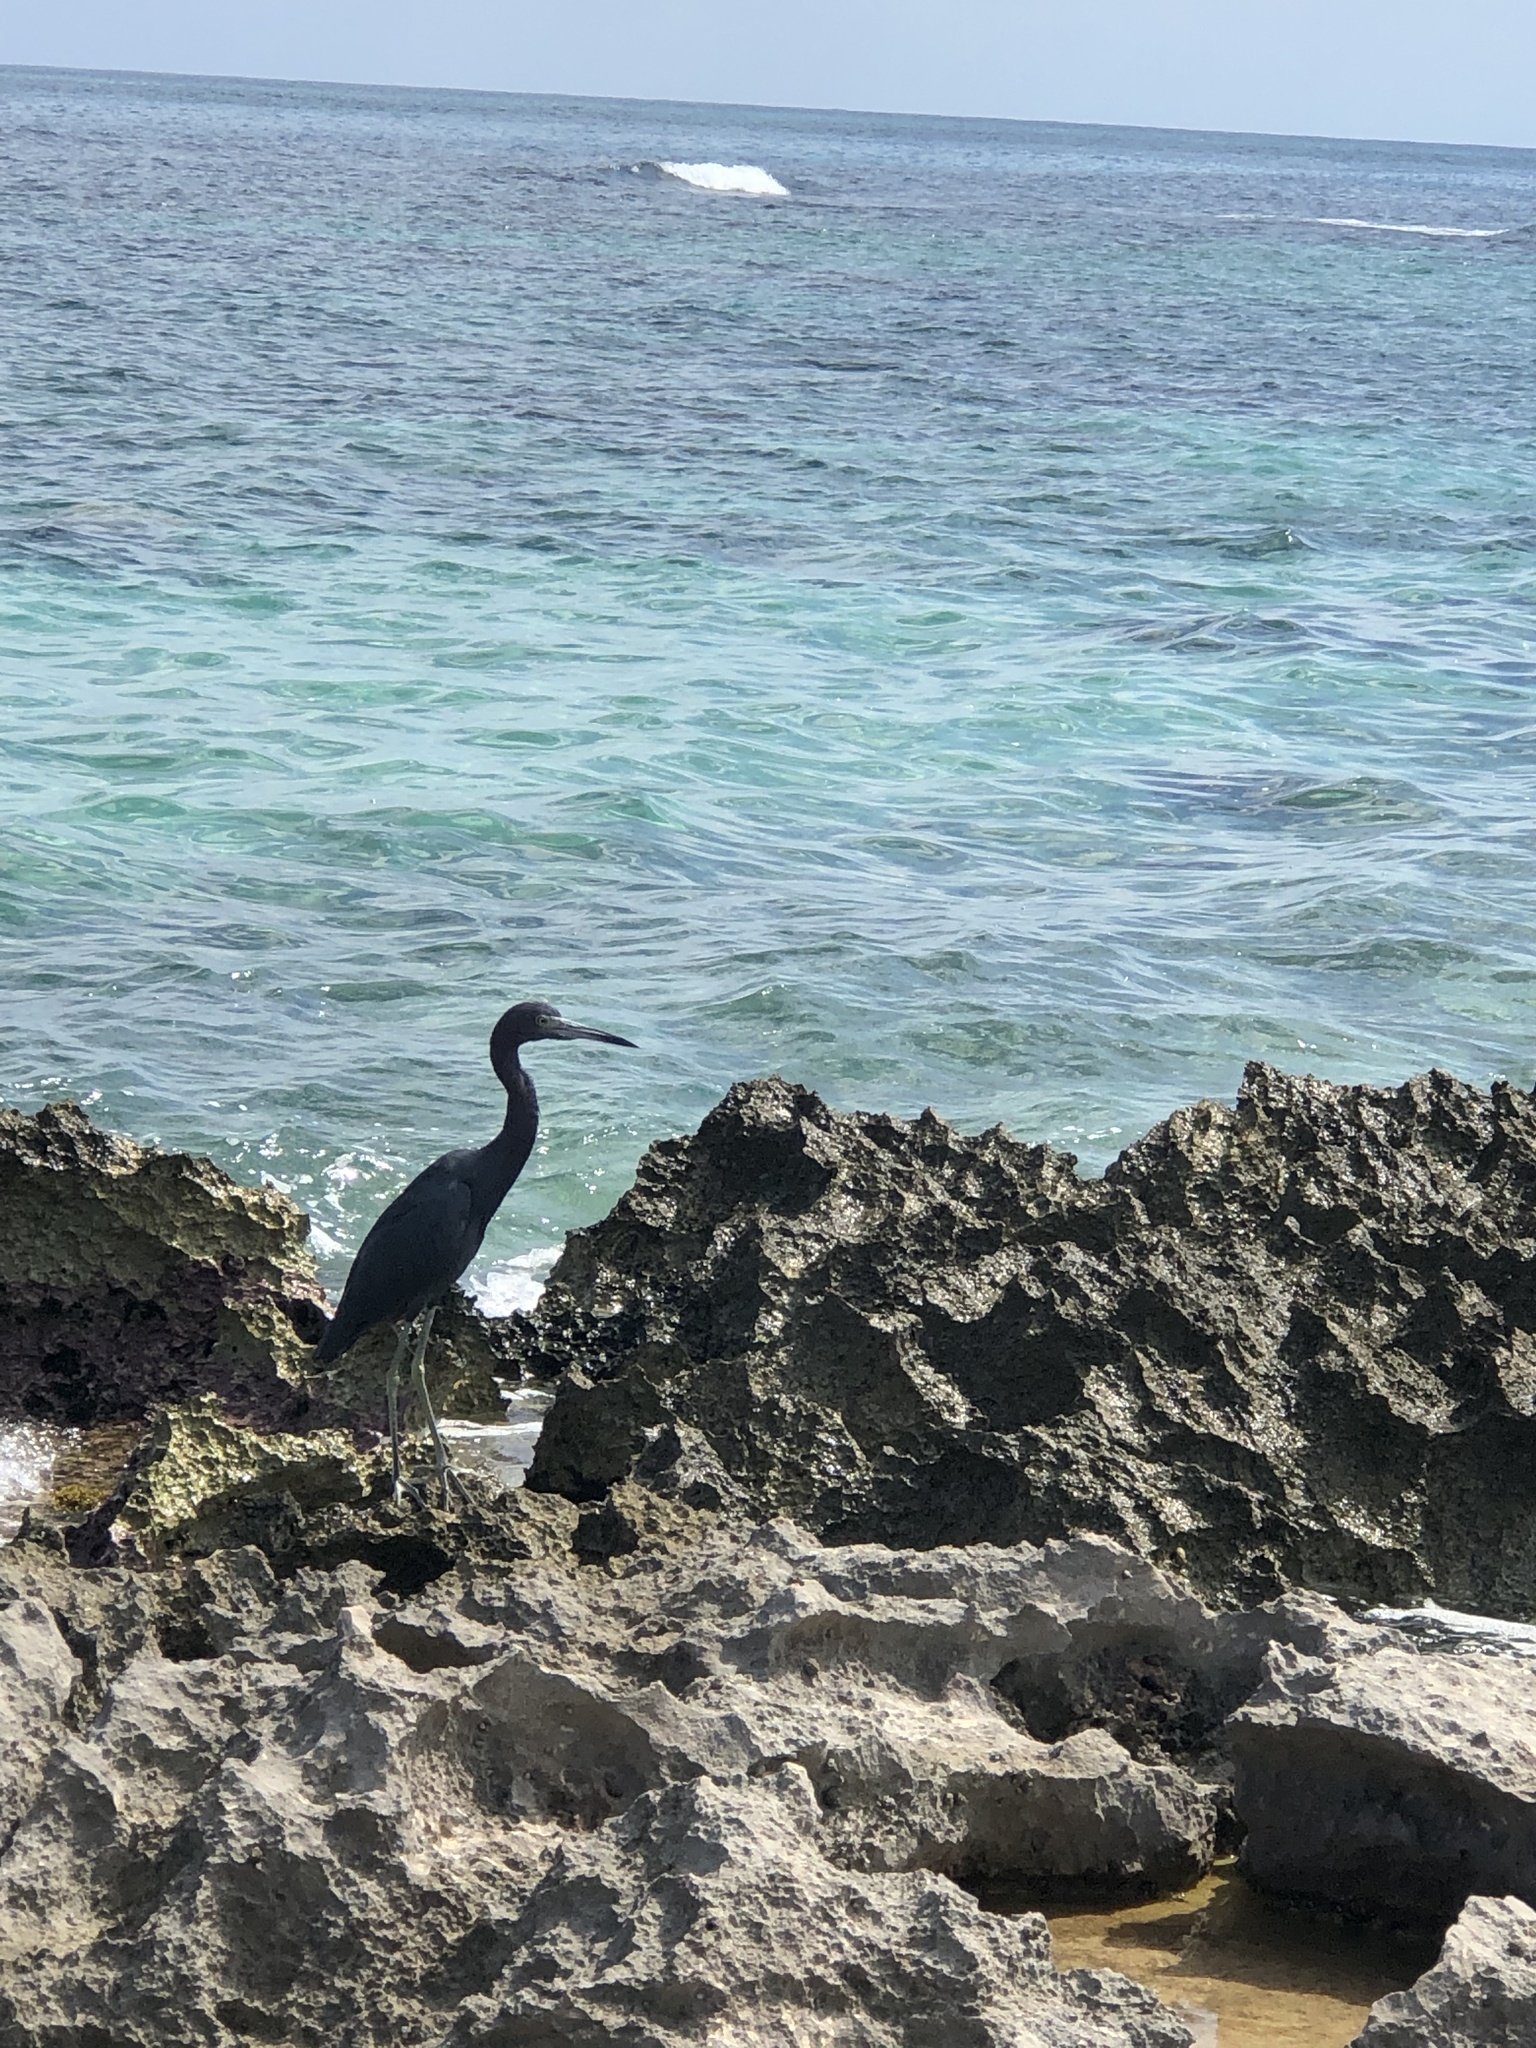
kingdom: Animalia
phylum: Chordata
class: Aves
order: Pelecaniformes
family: Ardeidae
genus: Egretta
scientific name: Egretta caerulea
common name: Little blue heron
